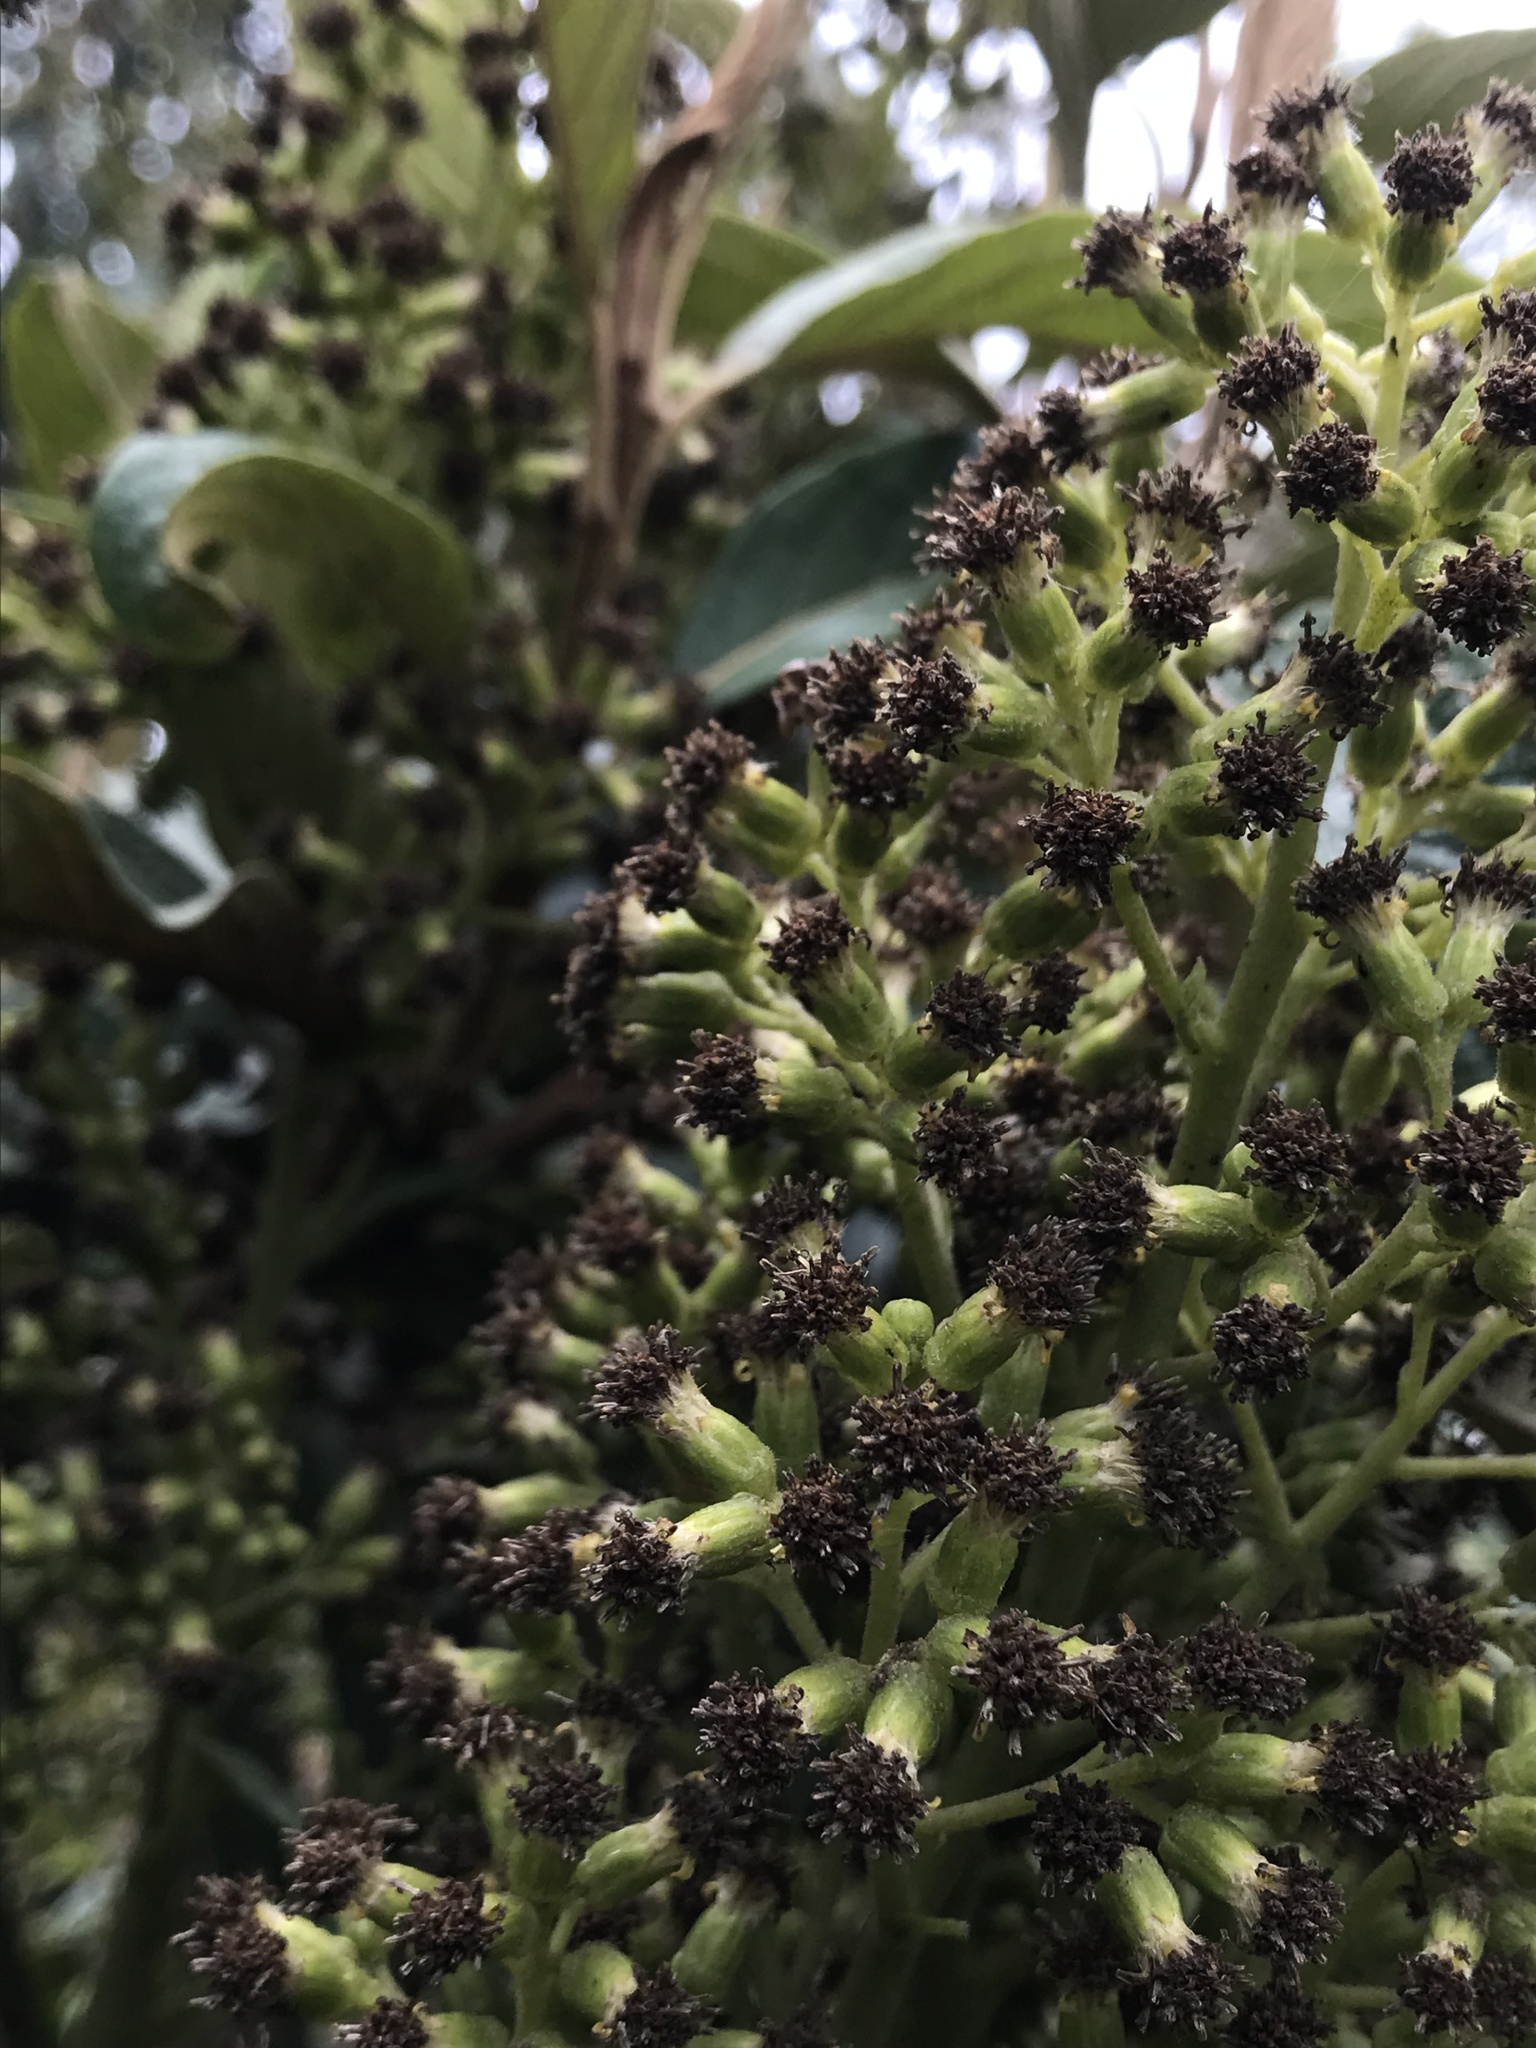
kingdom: Plantae
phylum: Tracheophyta
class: Magnoliopsida
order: Asterales
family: Asteraceae
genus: Pentacalia
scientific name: Pentacalia breviligulata
